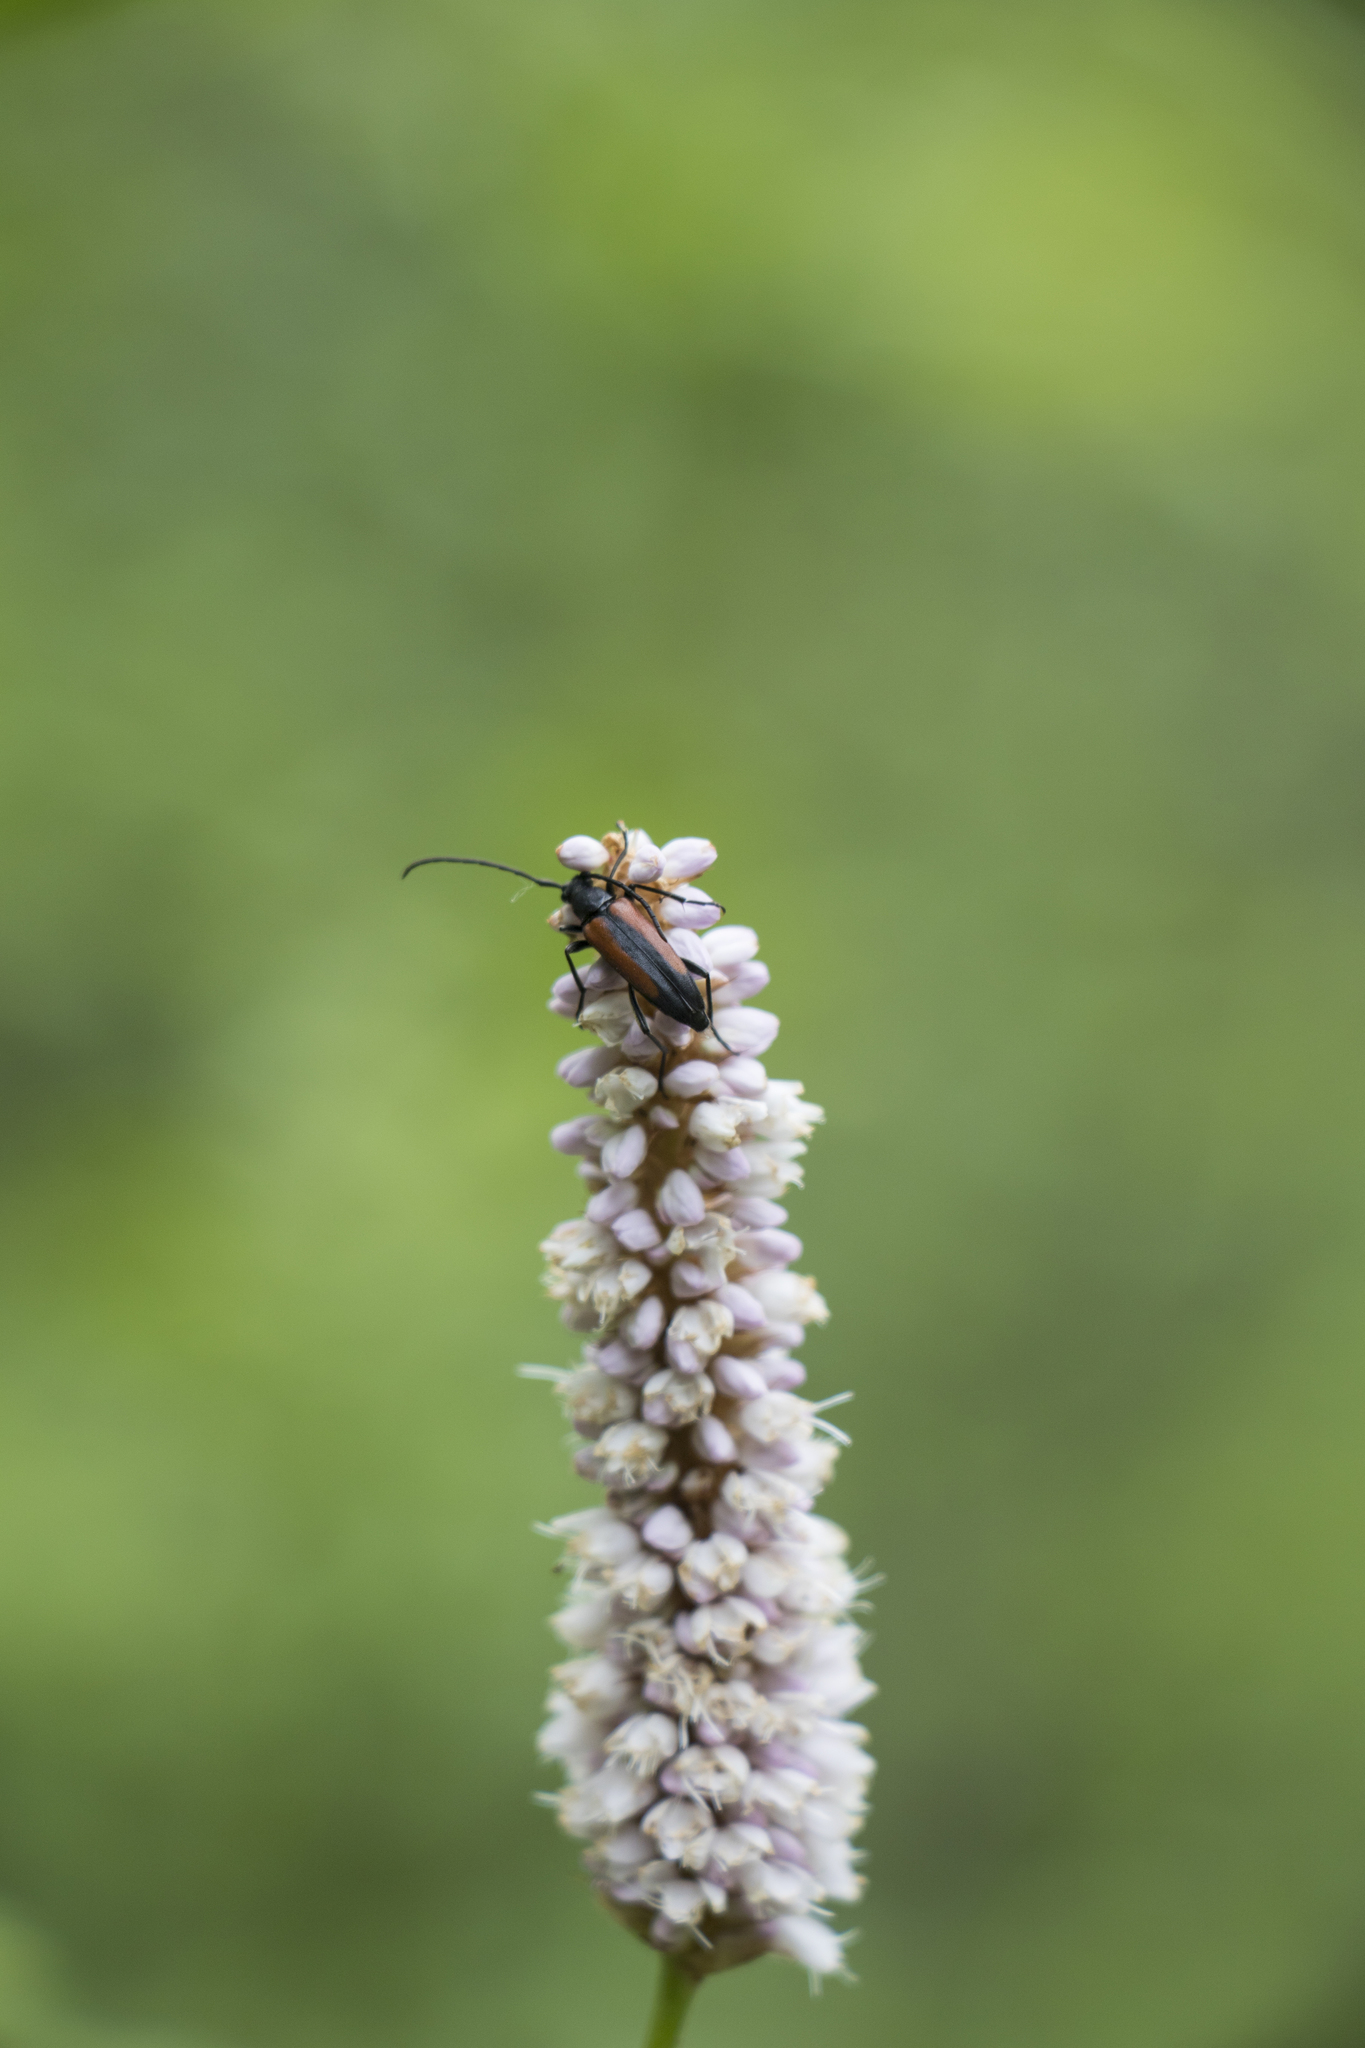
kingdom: Animalia
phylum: Arthropoda
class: Insecta
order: Coleoptera
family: Cerambycidae
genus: Stenurella
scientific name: Stenurella melanura
